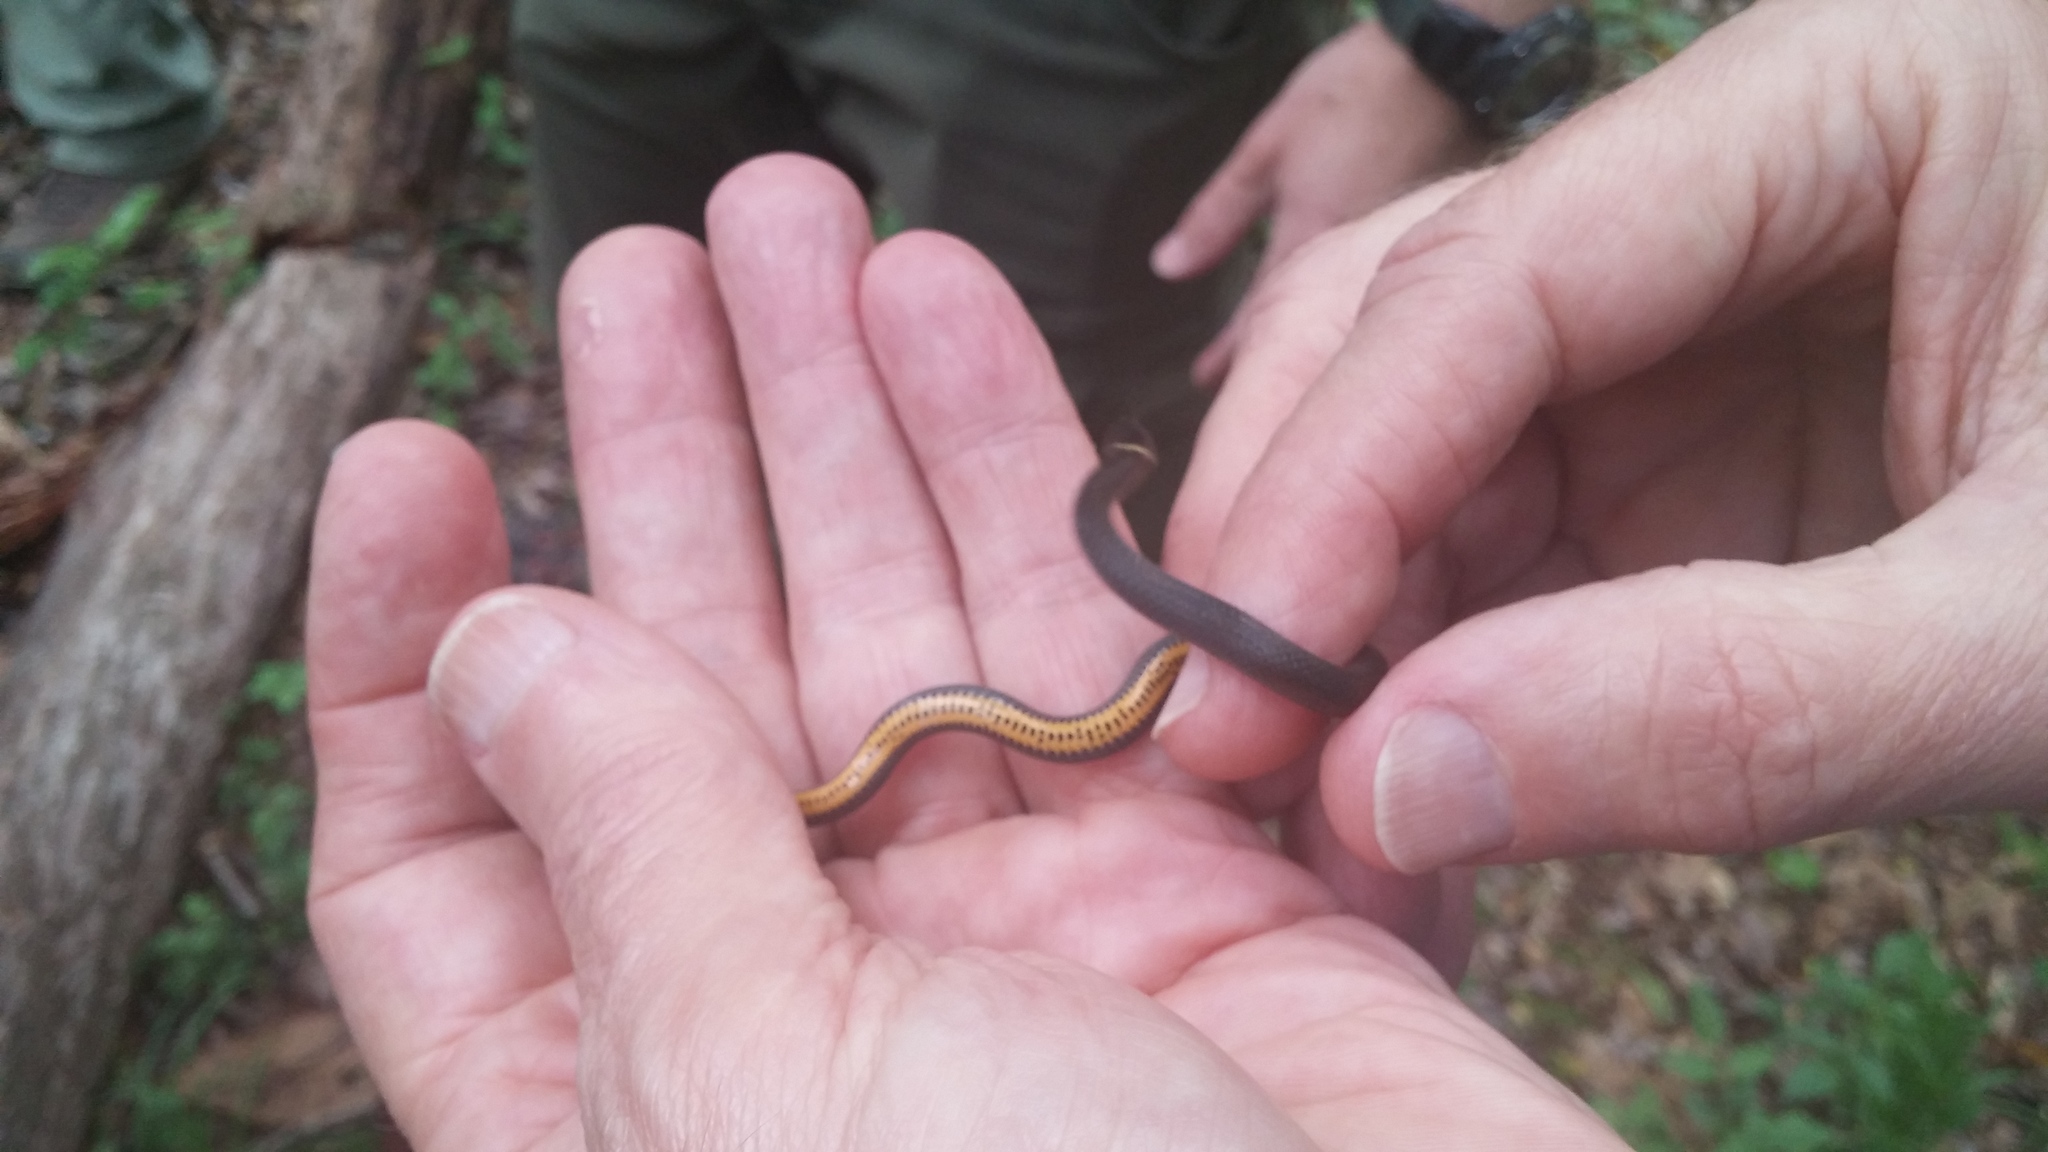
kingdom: Animalia
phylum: Chordata
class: Squamata
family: Colubridae
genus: Diadophis
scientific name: Diadophis punctatus
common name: Ringneck snake
